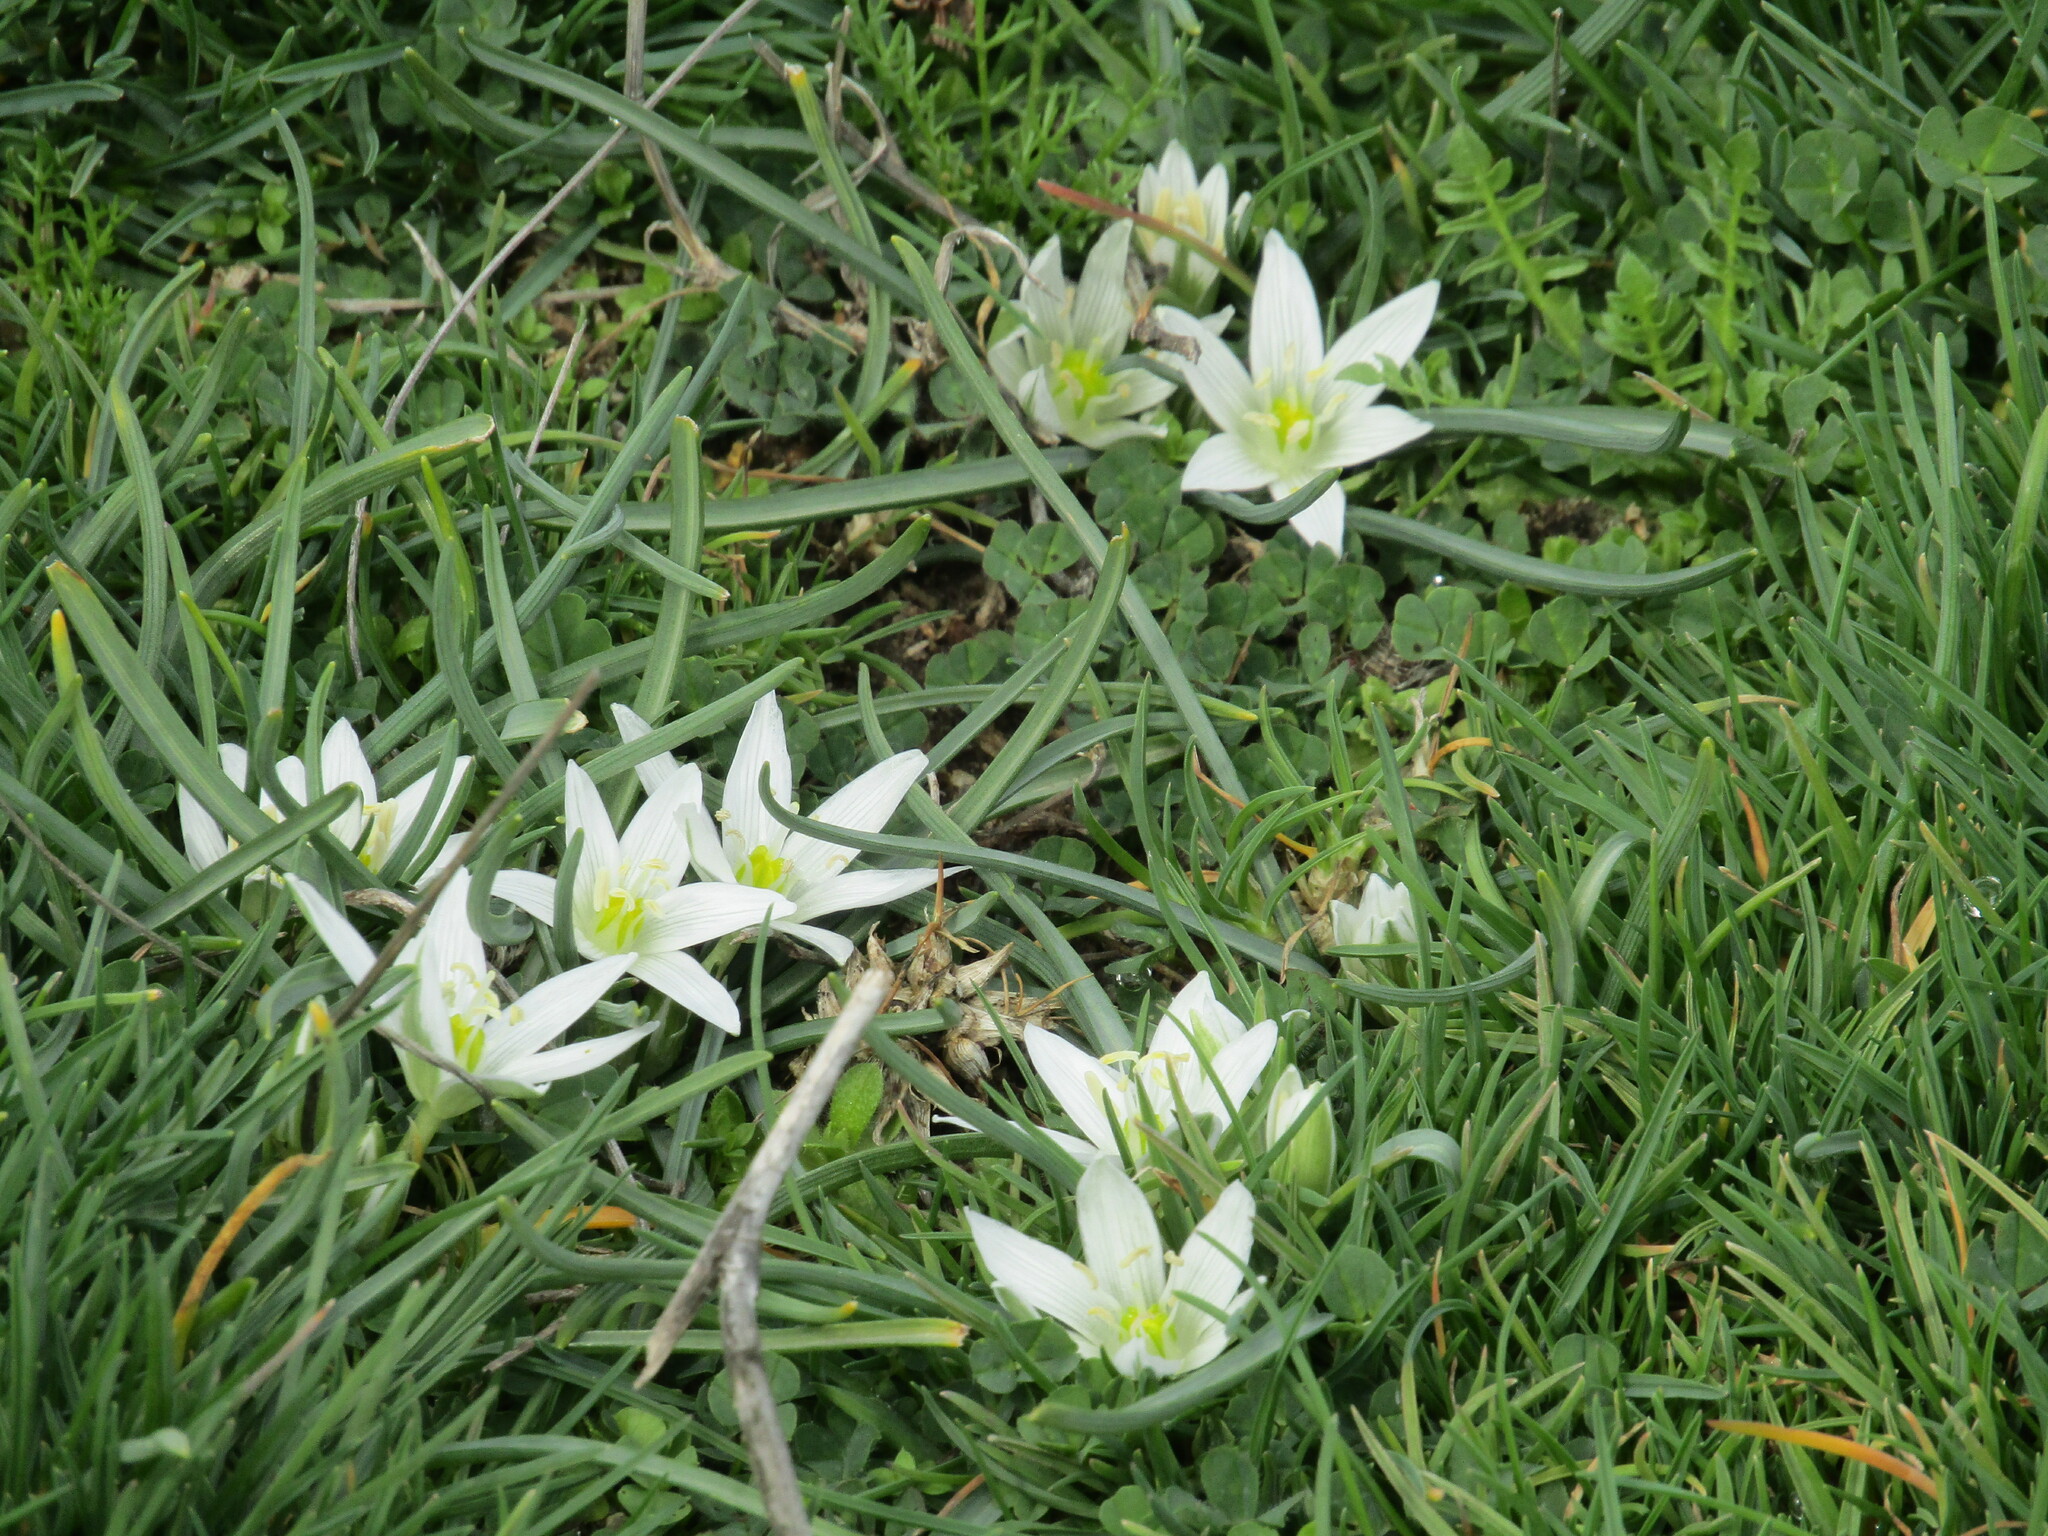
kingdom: Plantae
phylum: Tracheophyta
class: Liliopsida
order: Asparagales
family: Asparagaceae
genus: Ornithogalum
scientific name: Ornithogalum
